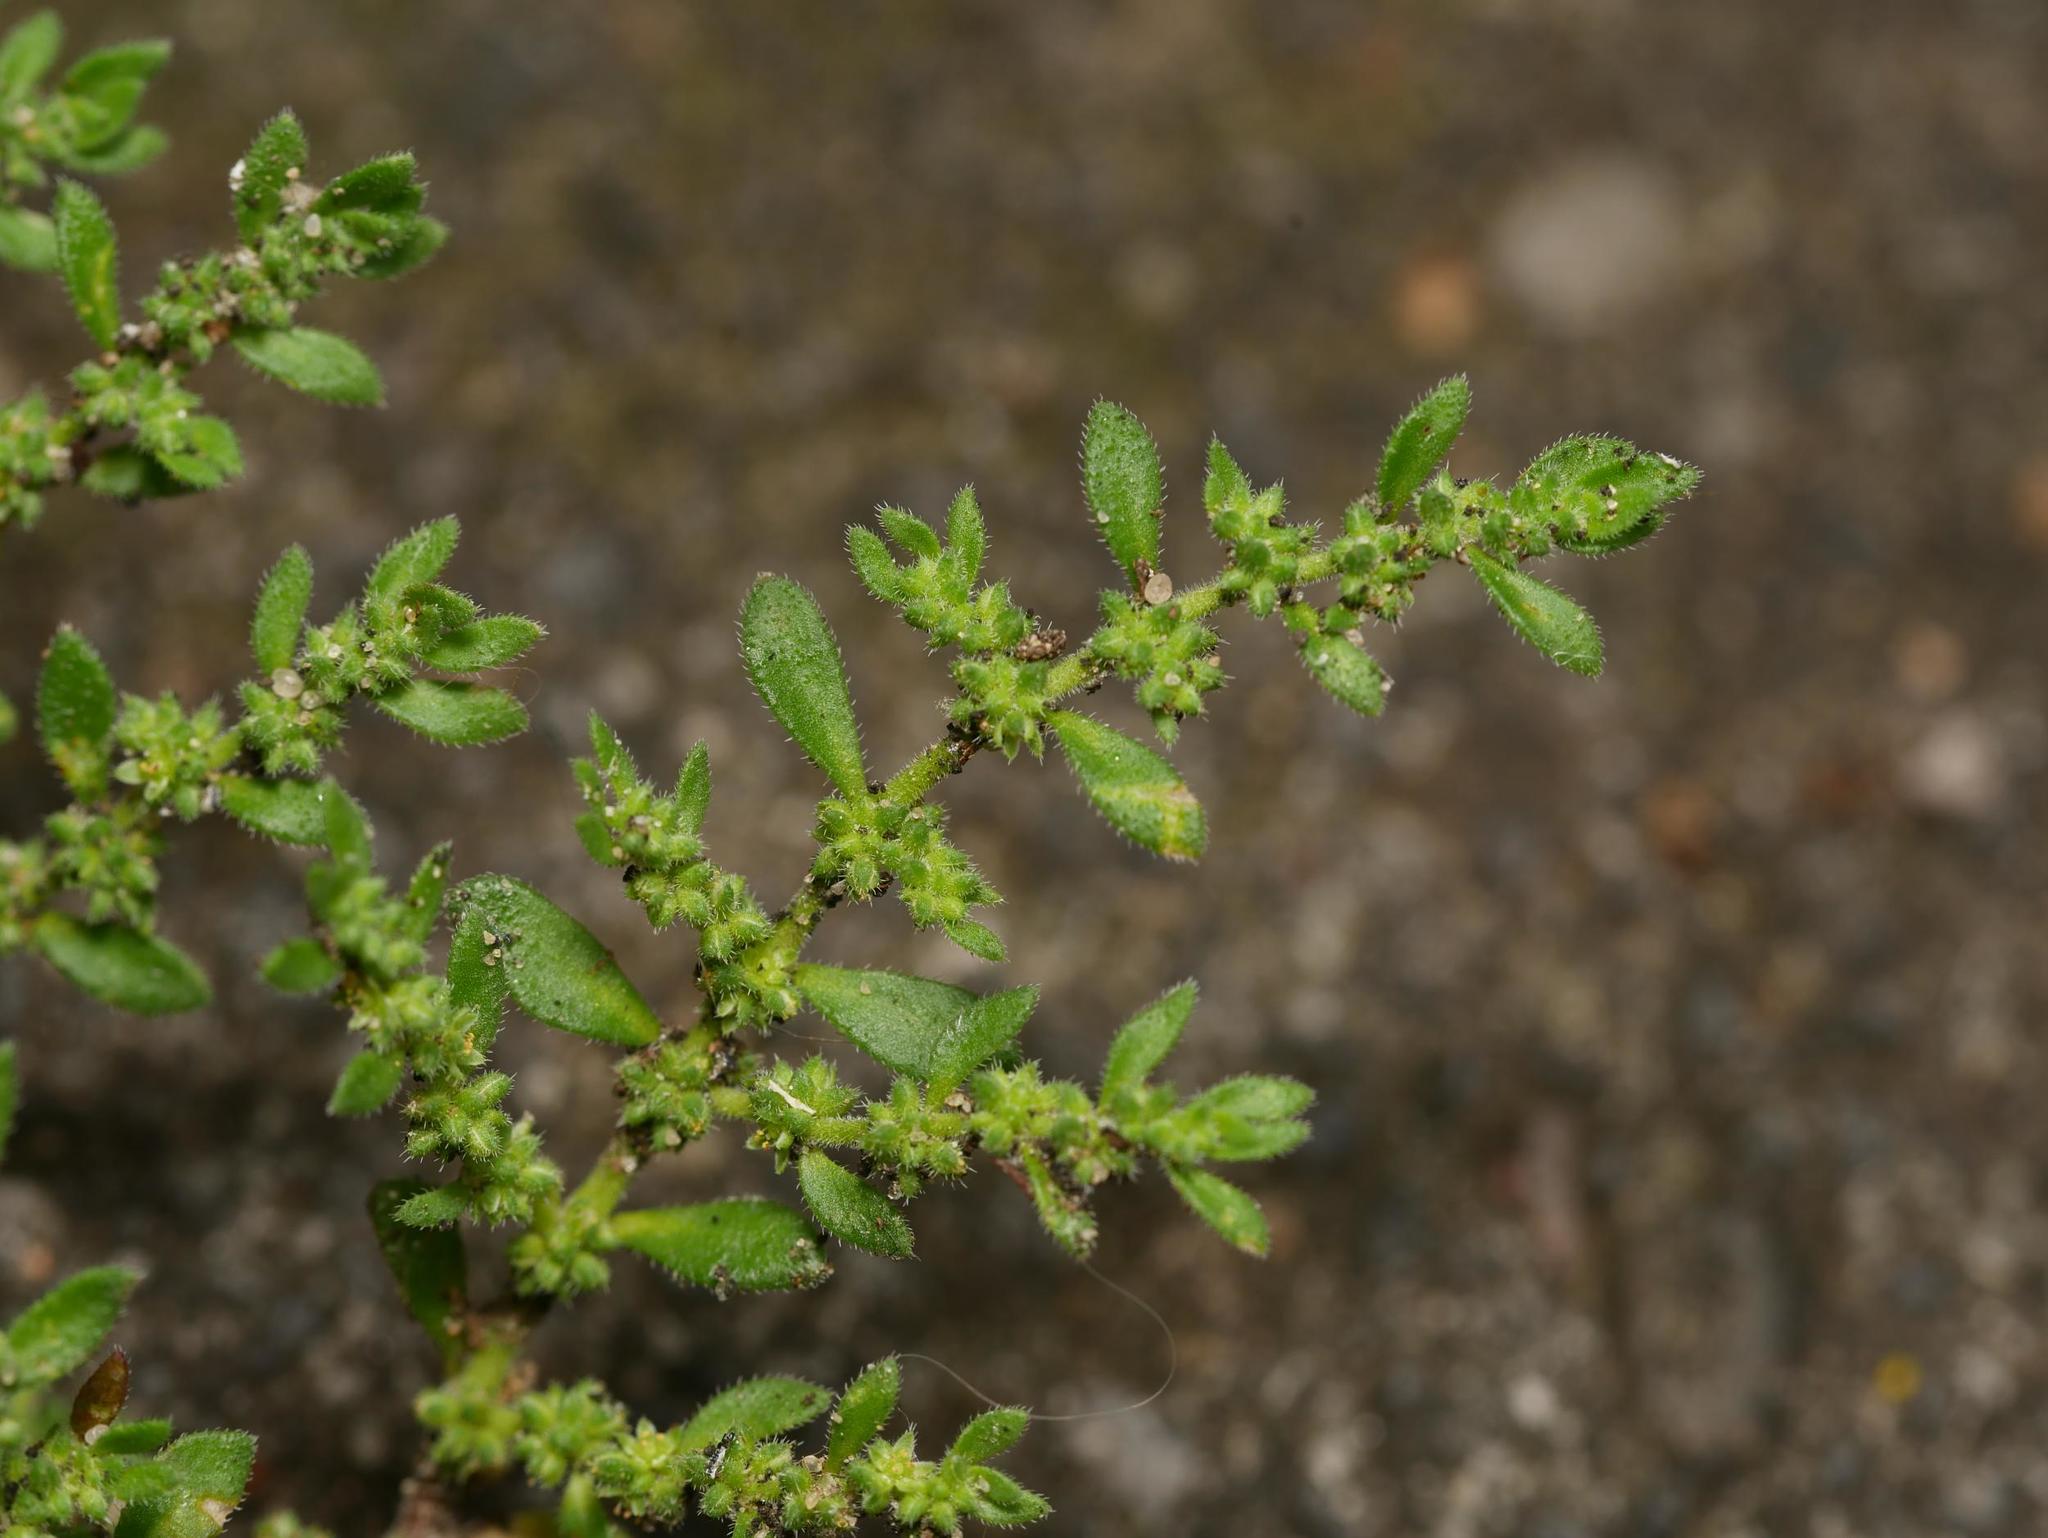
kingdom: Plantae
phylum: Tracheophyta
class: Magnoliopsida
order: Caryophyllales
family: Caryophyllaceae
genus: Herniaria
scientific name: Herniaria hirsuta
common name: Hairy rupturewort
